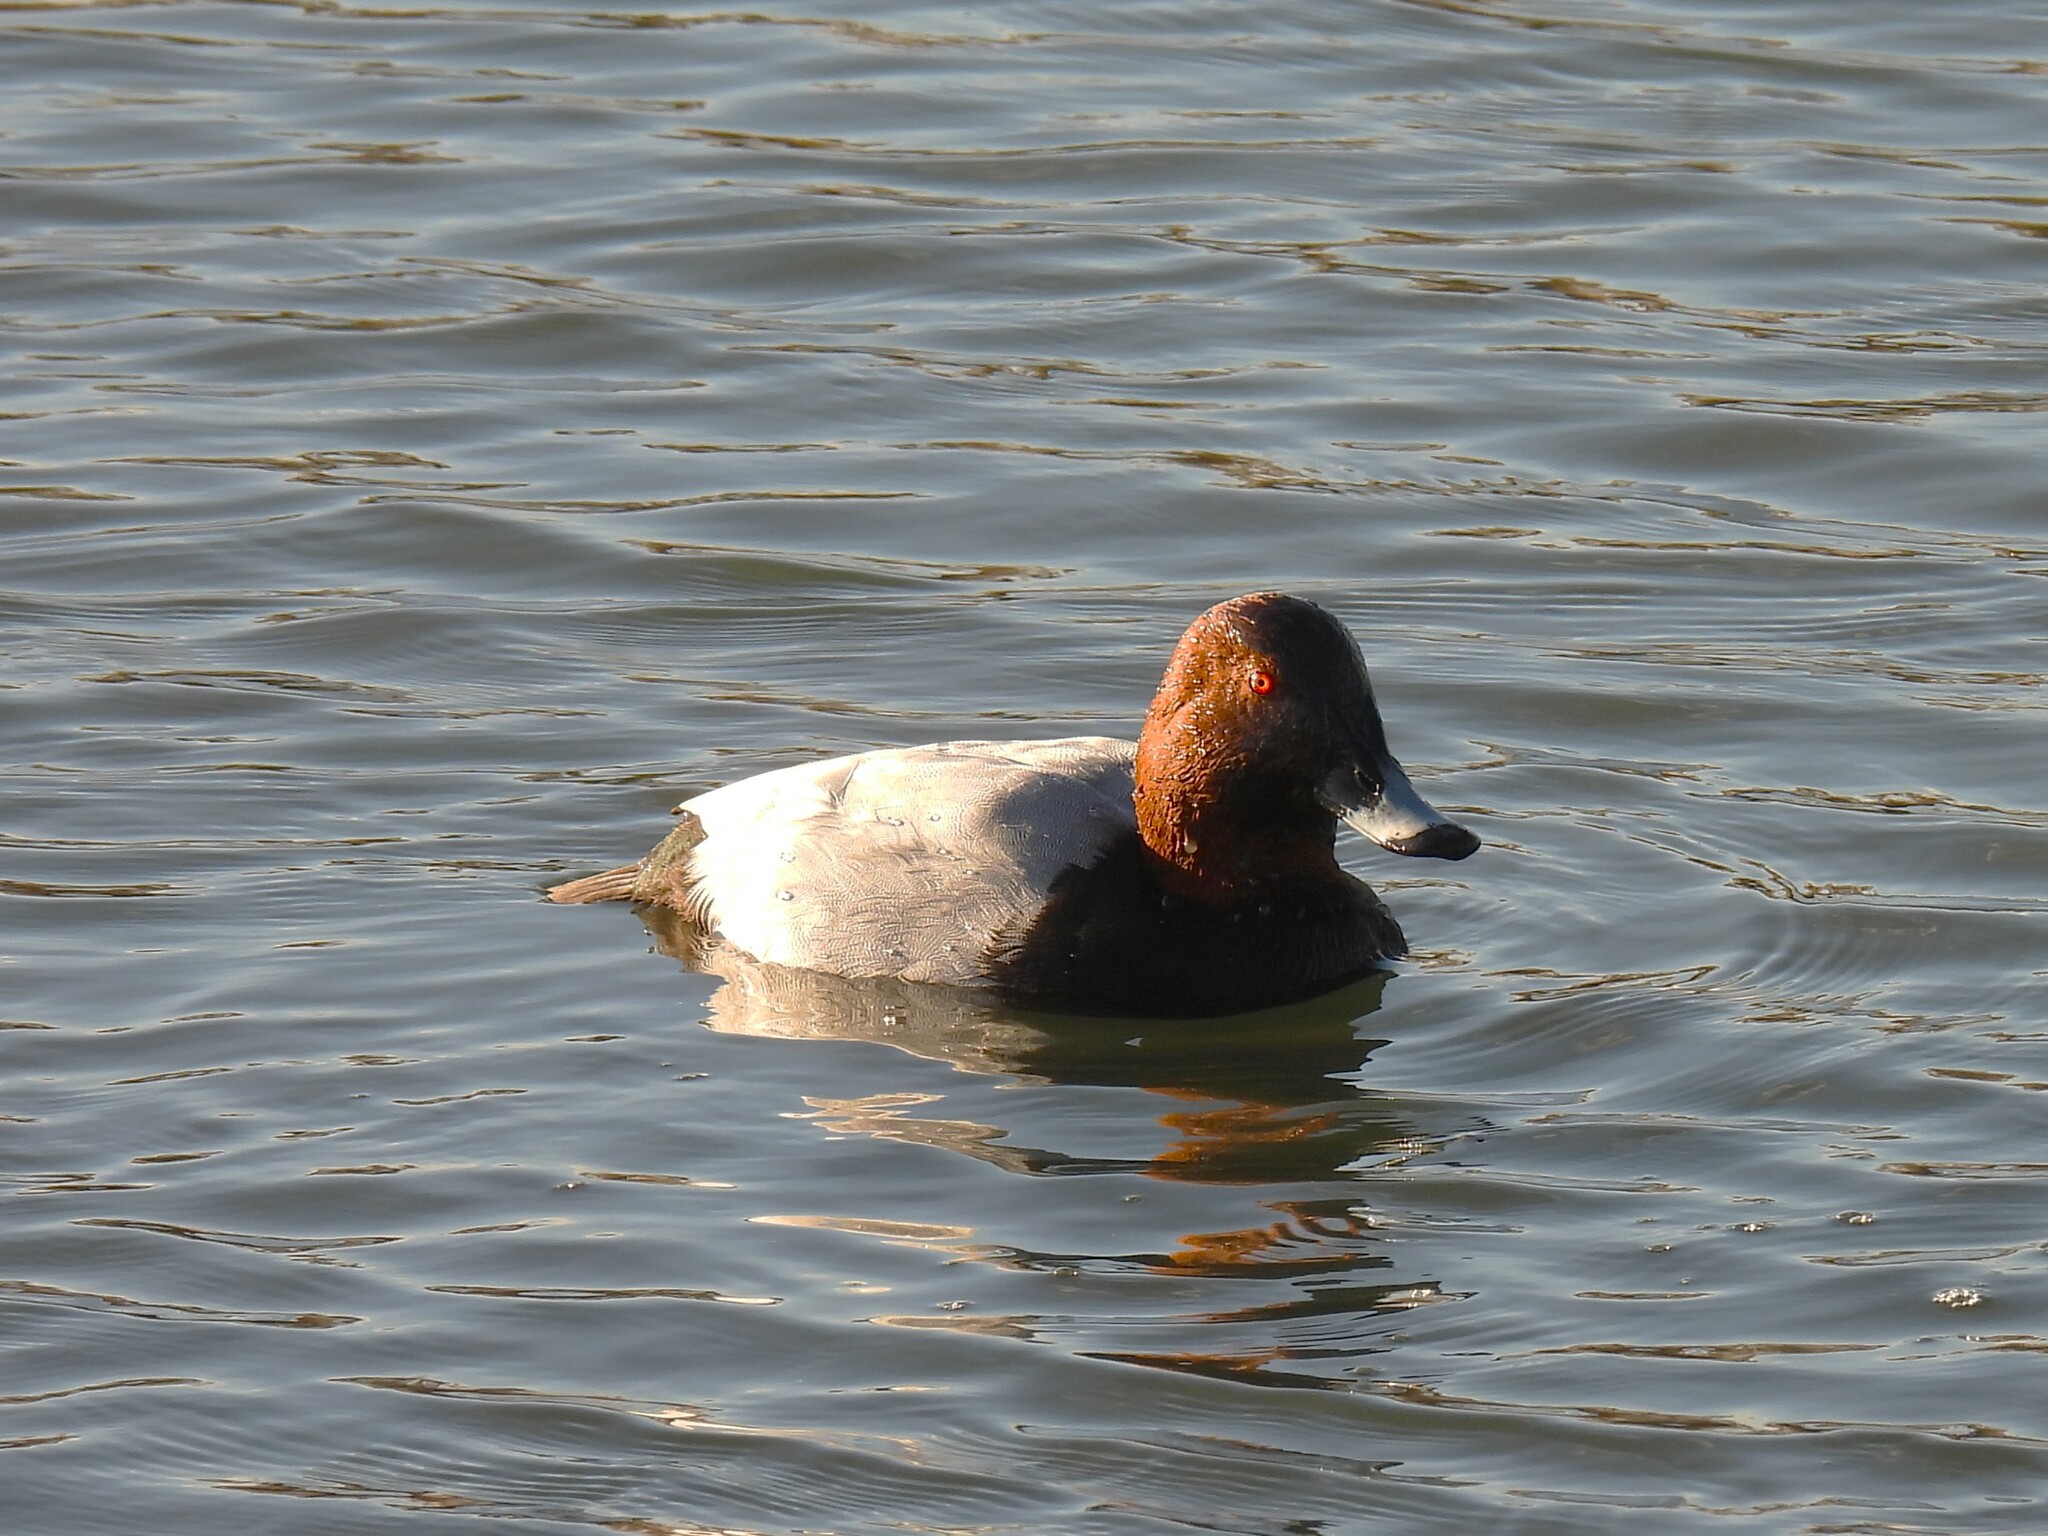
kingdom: Animalia
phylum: Chordata
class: Aves
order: Anseriformes
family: Anatidae
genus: Aythya
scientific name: Aythya ferina
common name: Common pochard
